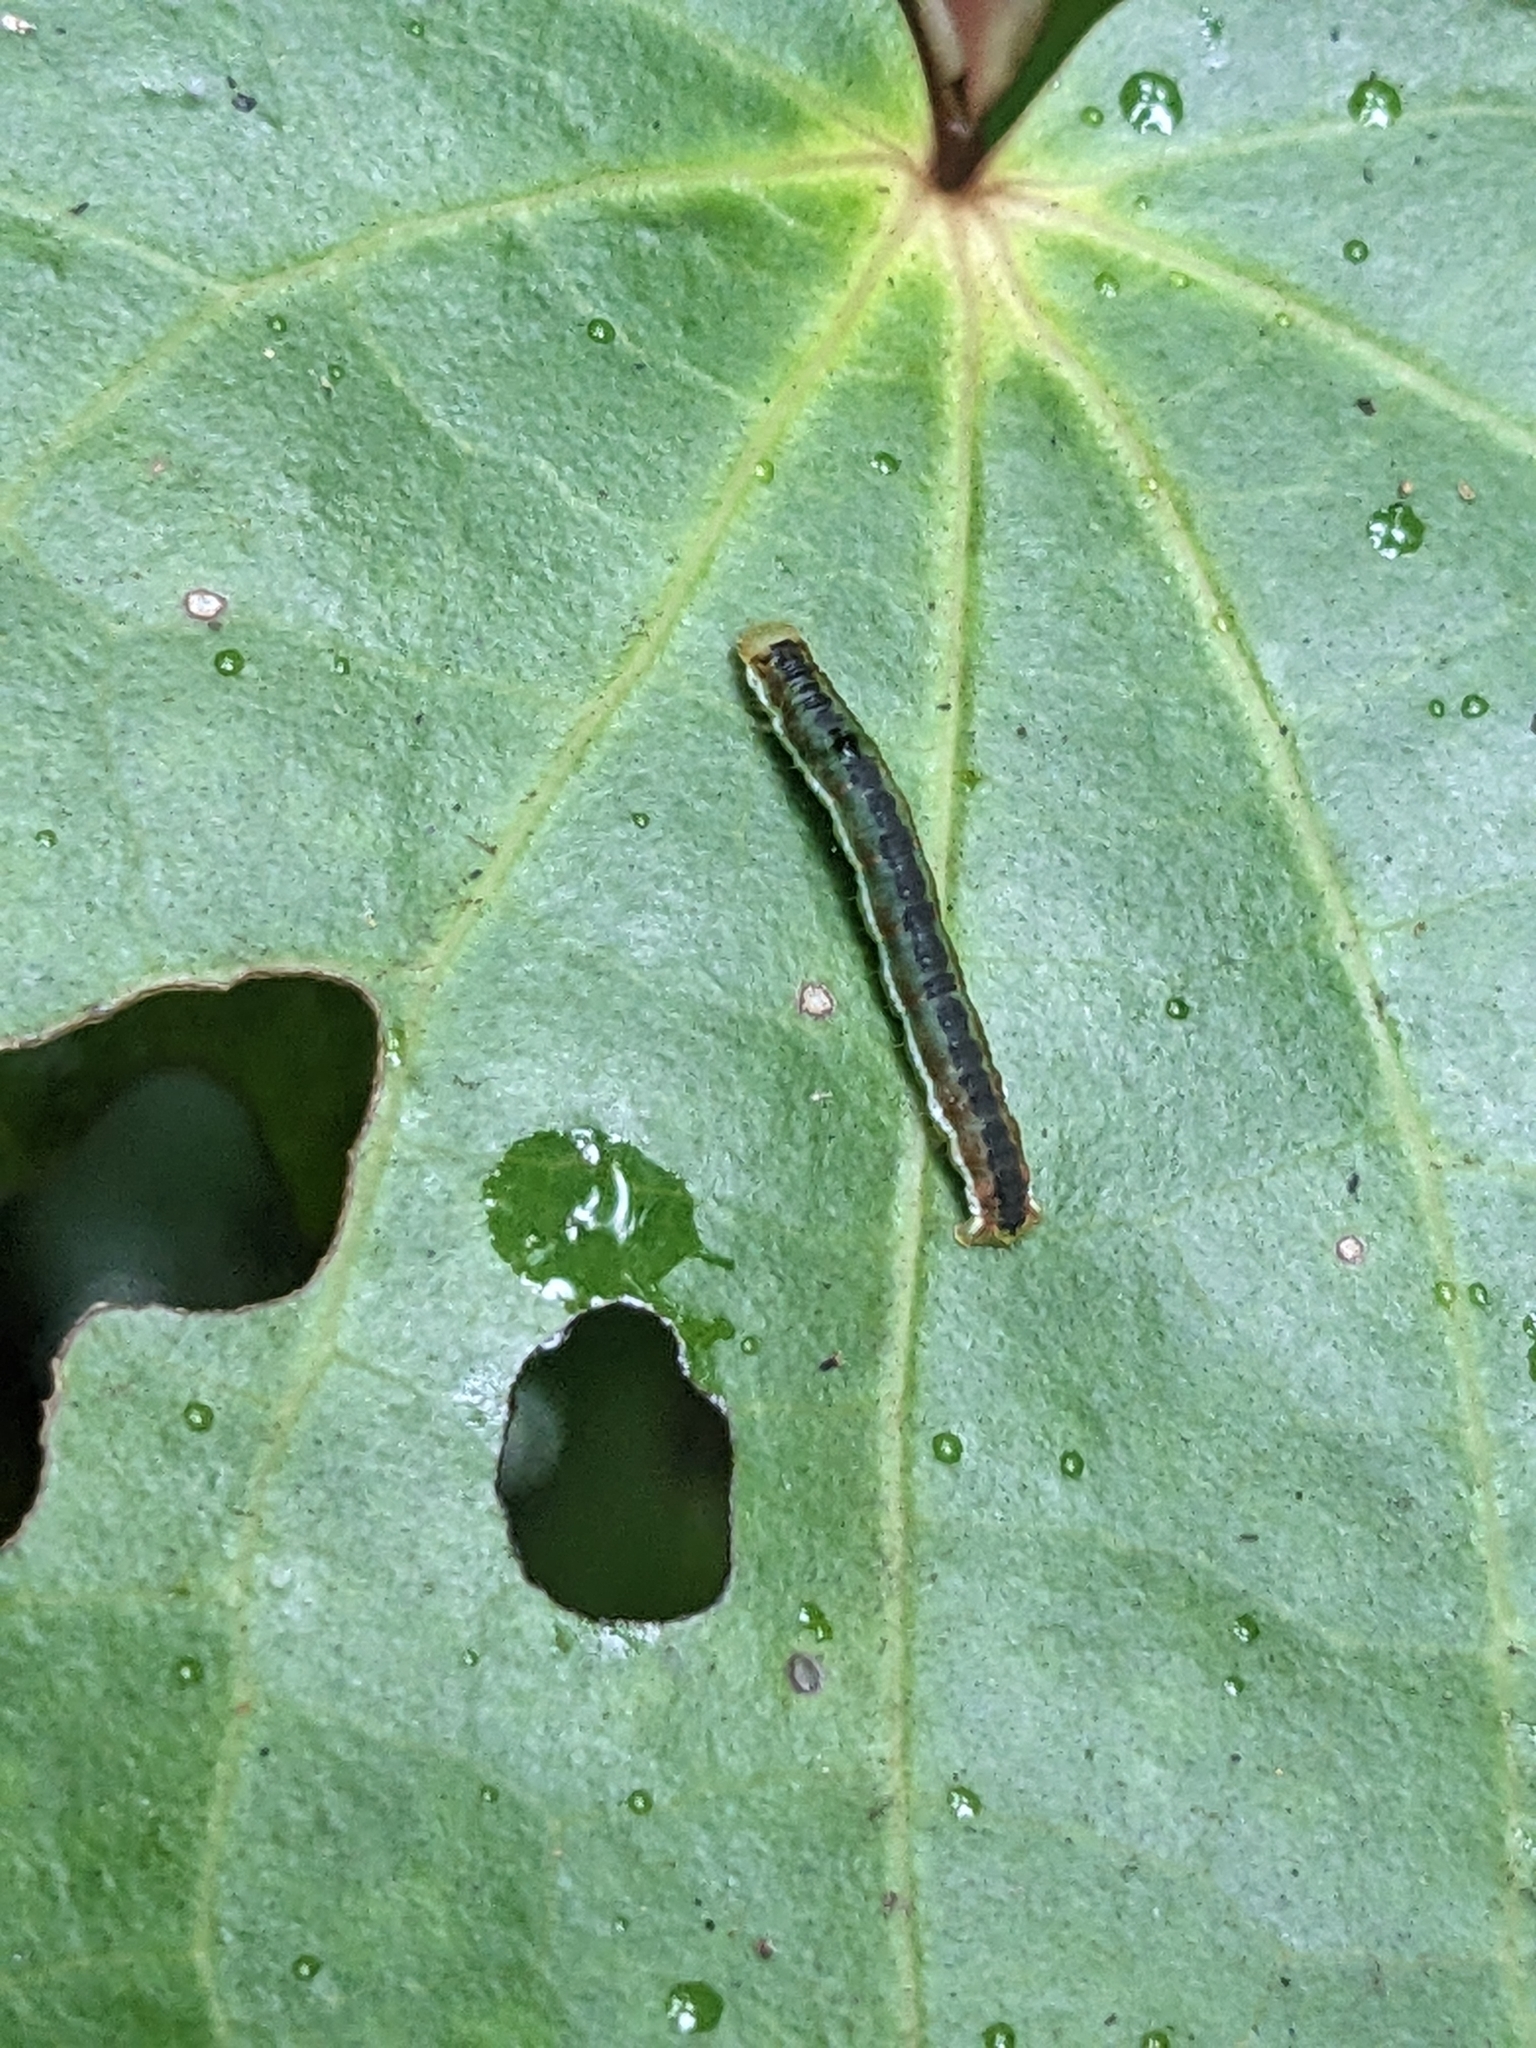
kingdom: Animalia
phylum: Arthropoda
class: Insecta
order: Lepidoptera
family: Geometridae
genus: Cleora
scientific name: Cleora scriptaria
